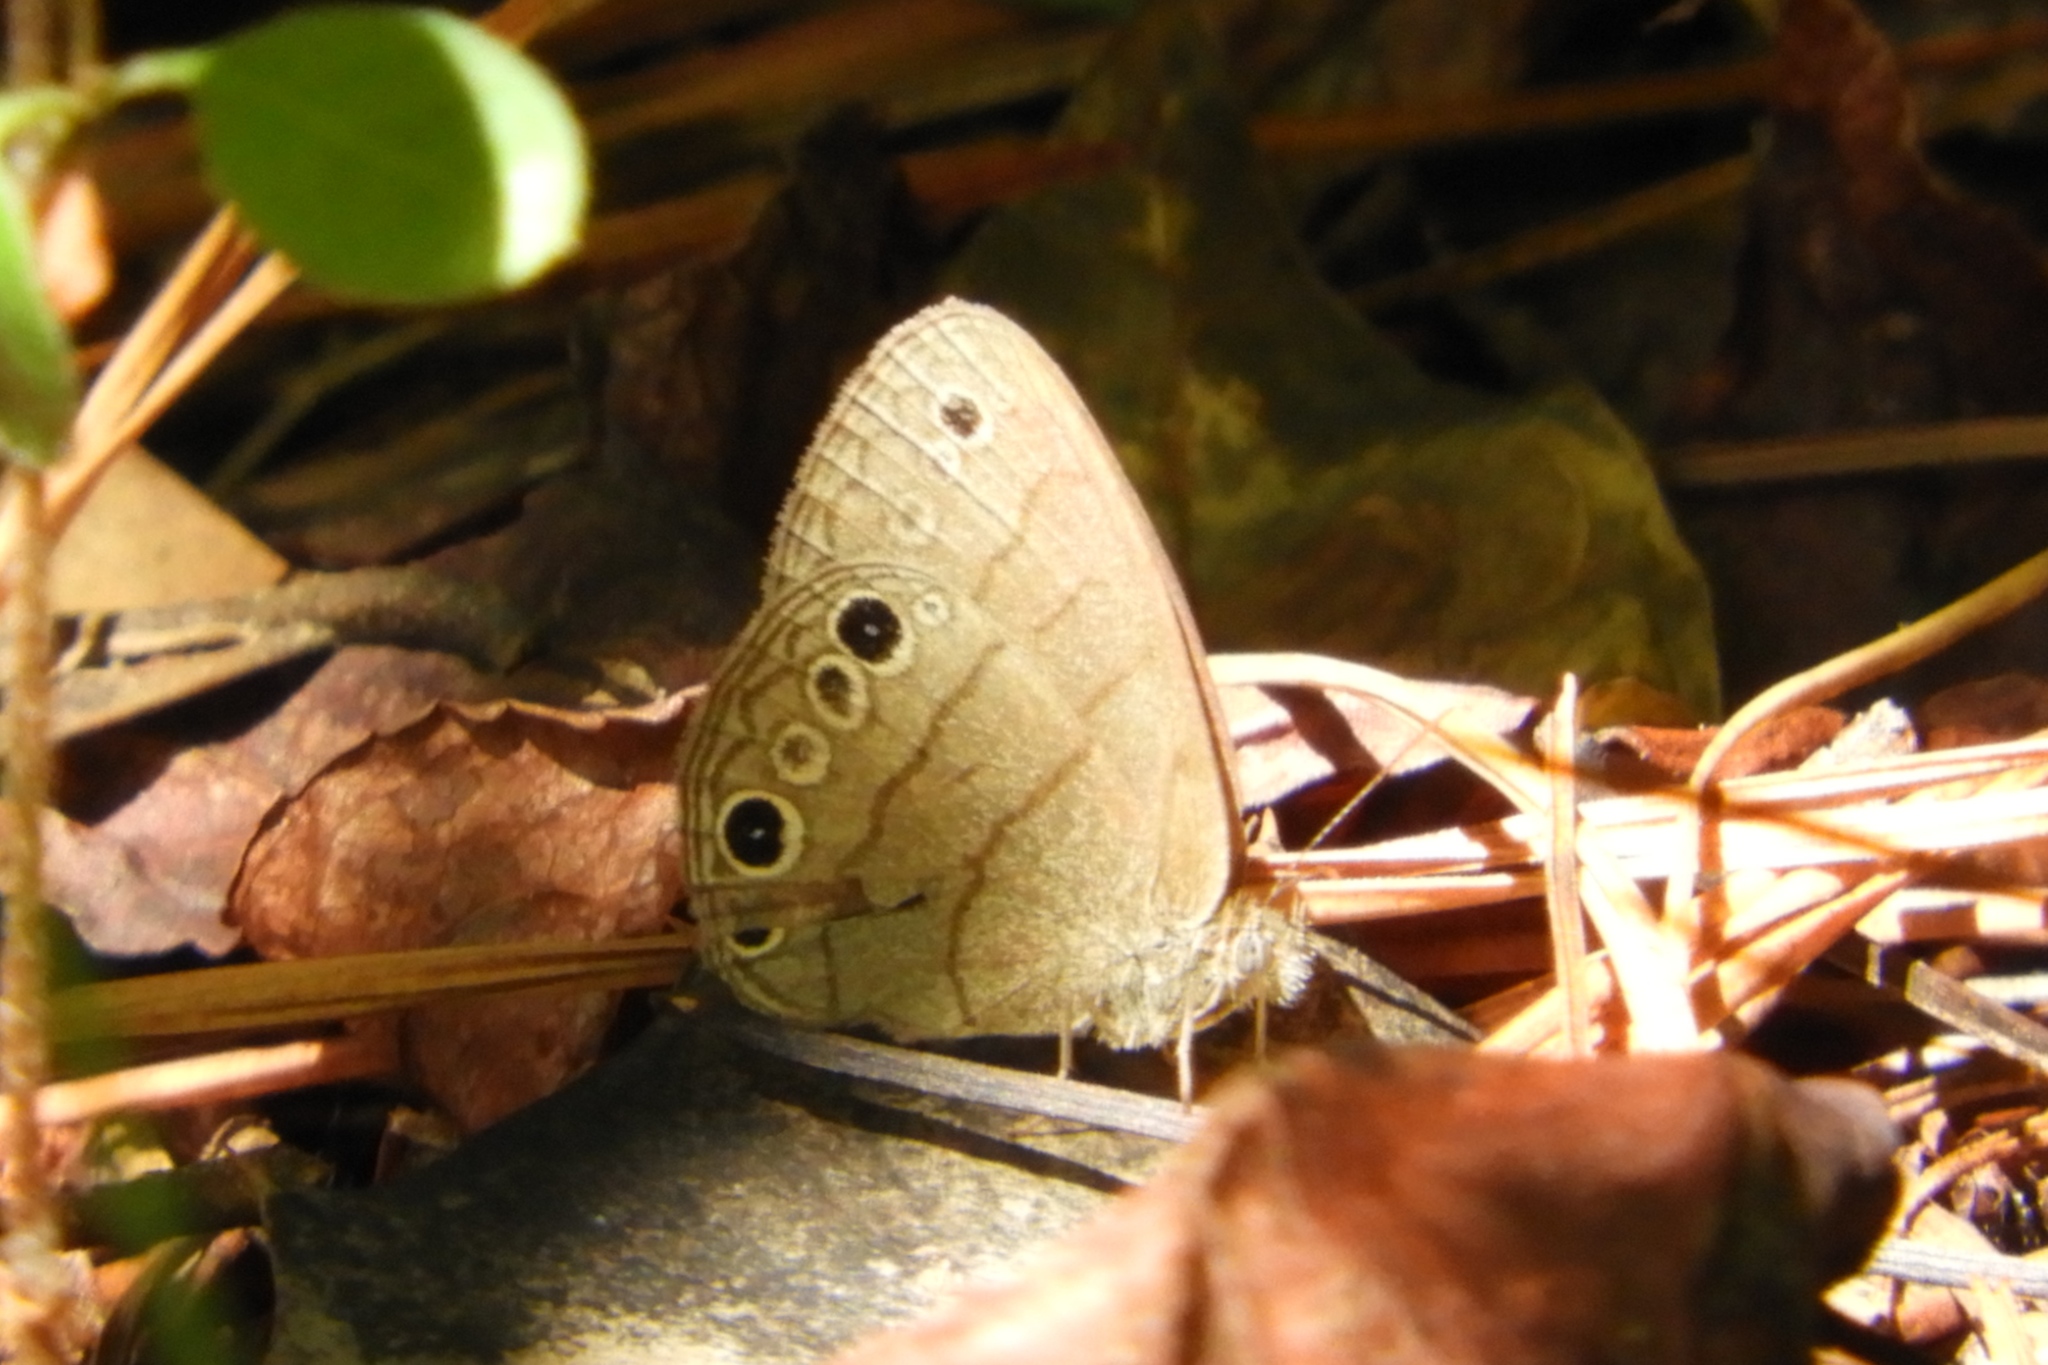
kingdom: Animalia
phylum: Arthropoda
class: Insecta
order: Lepidoptera
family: Nymphalidae
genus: Hermeuptychia
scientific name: Hermeuptychia intricata
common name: Intricate satyr
